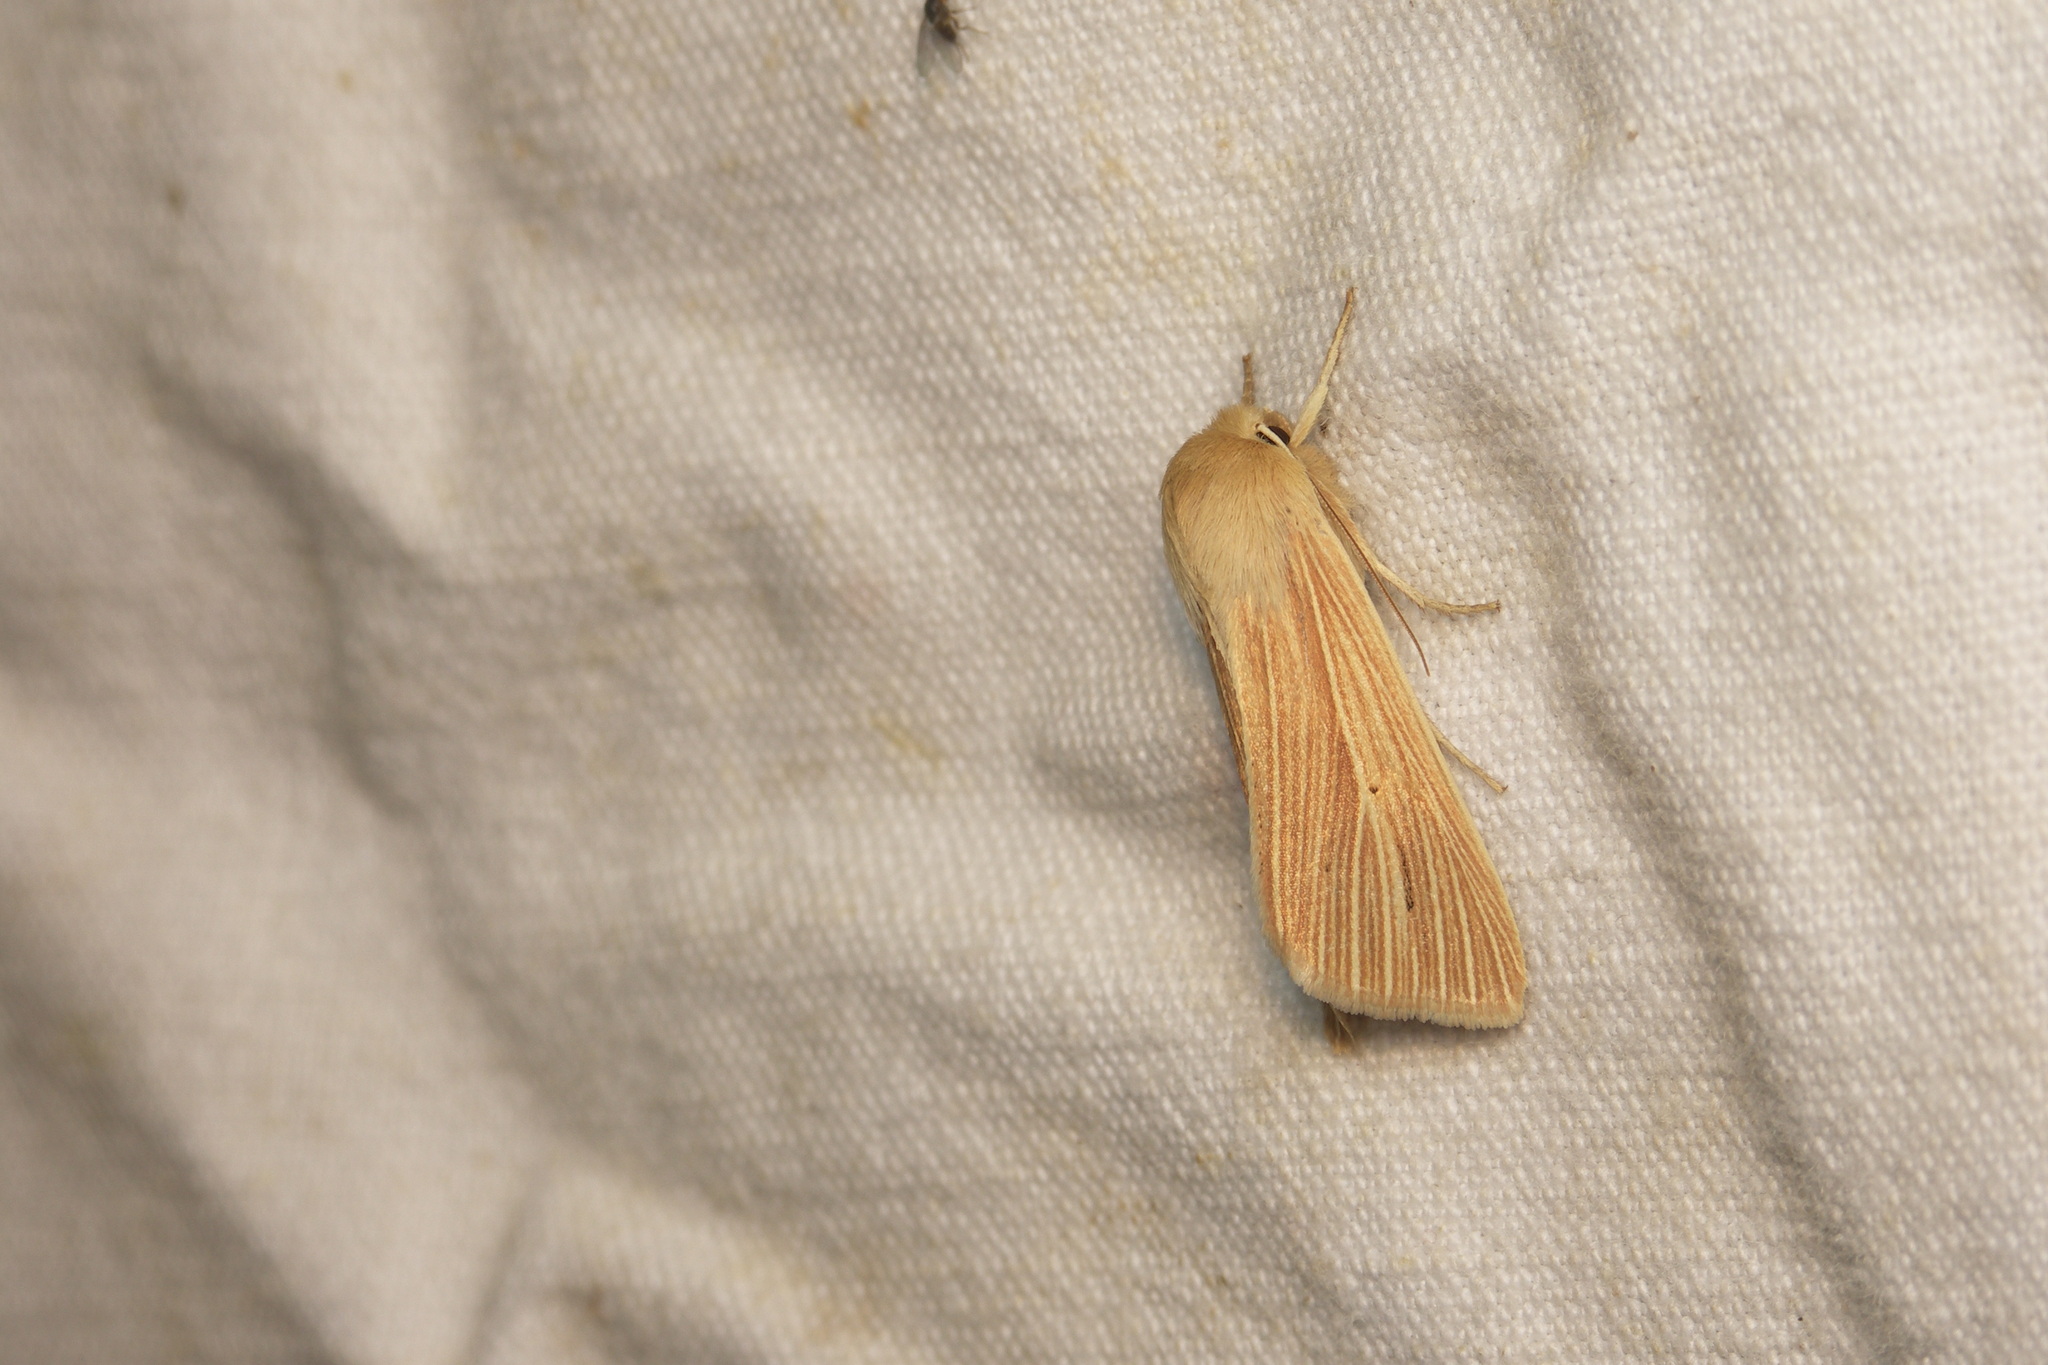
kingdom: Animalia
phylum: Arthropoda
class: Insecta
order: Lepidoptera
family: Noctuidae
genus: Mythimna
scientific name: Mythimna pallens
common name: Common wainscot
